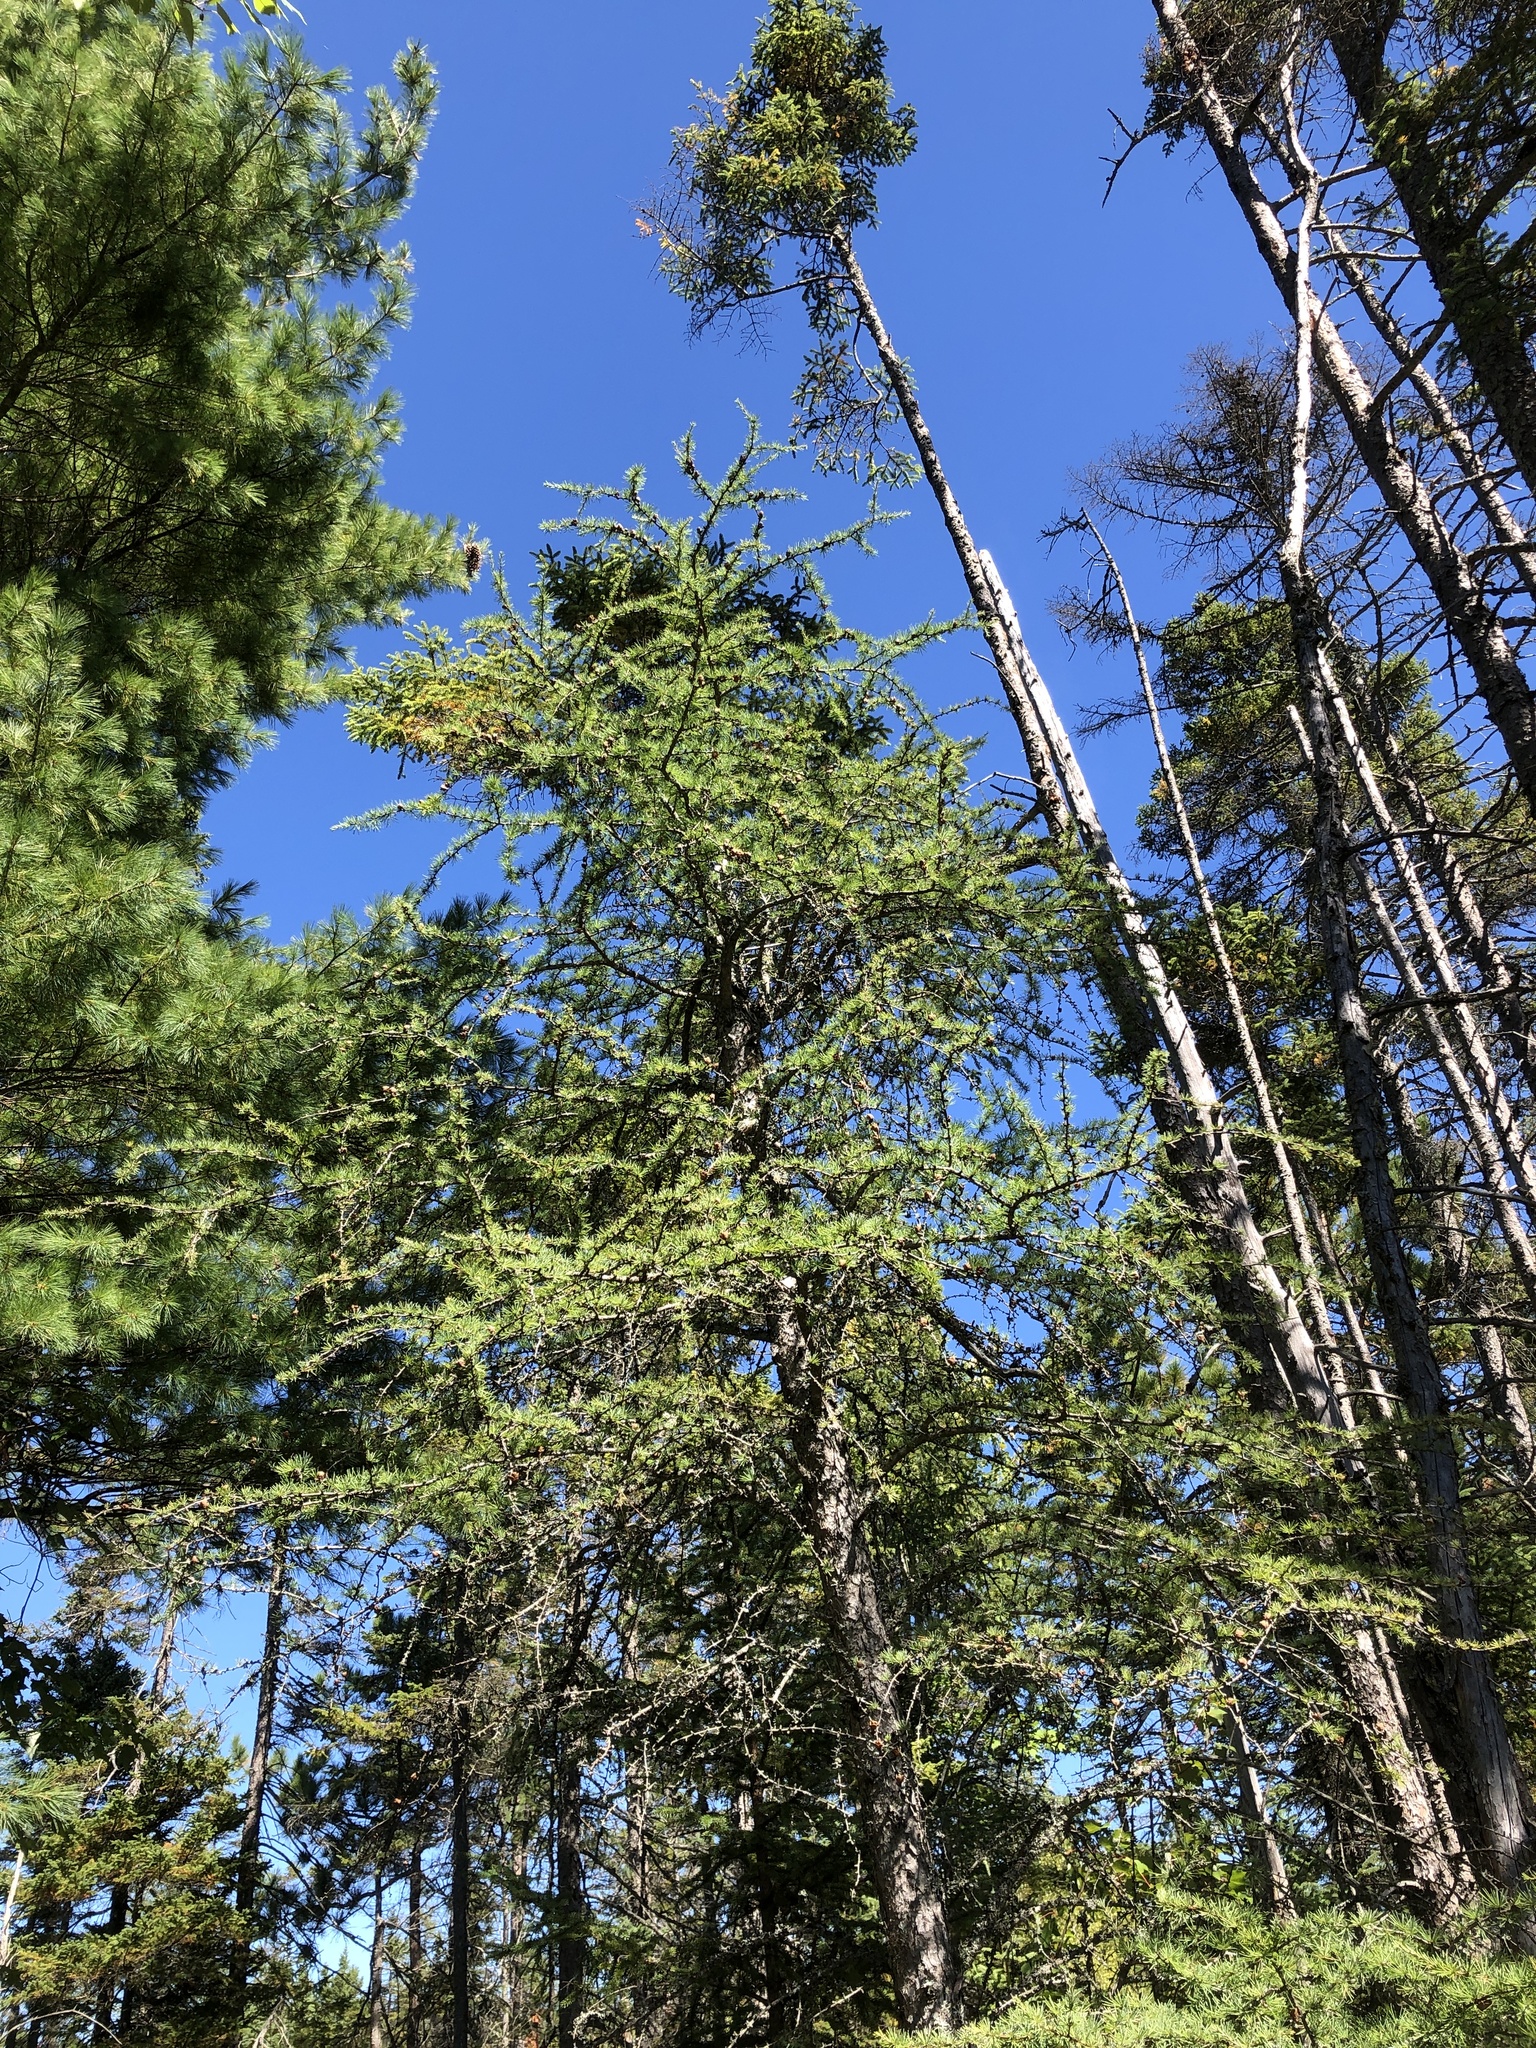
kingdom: Plantae
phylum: Tracheophyta
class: Pinopsida
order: Pinales
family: Pinaceae
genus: Larix
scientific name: Larix laricina
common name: American larch
